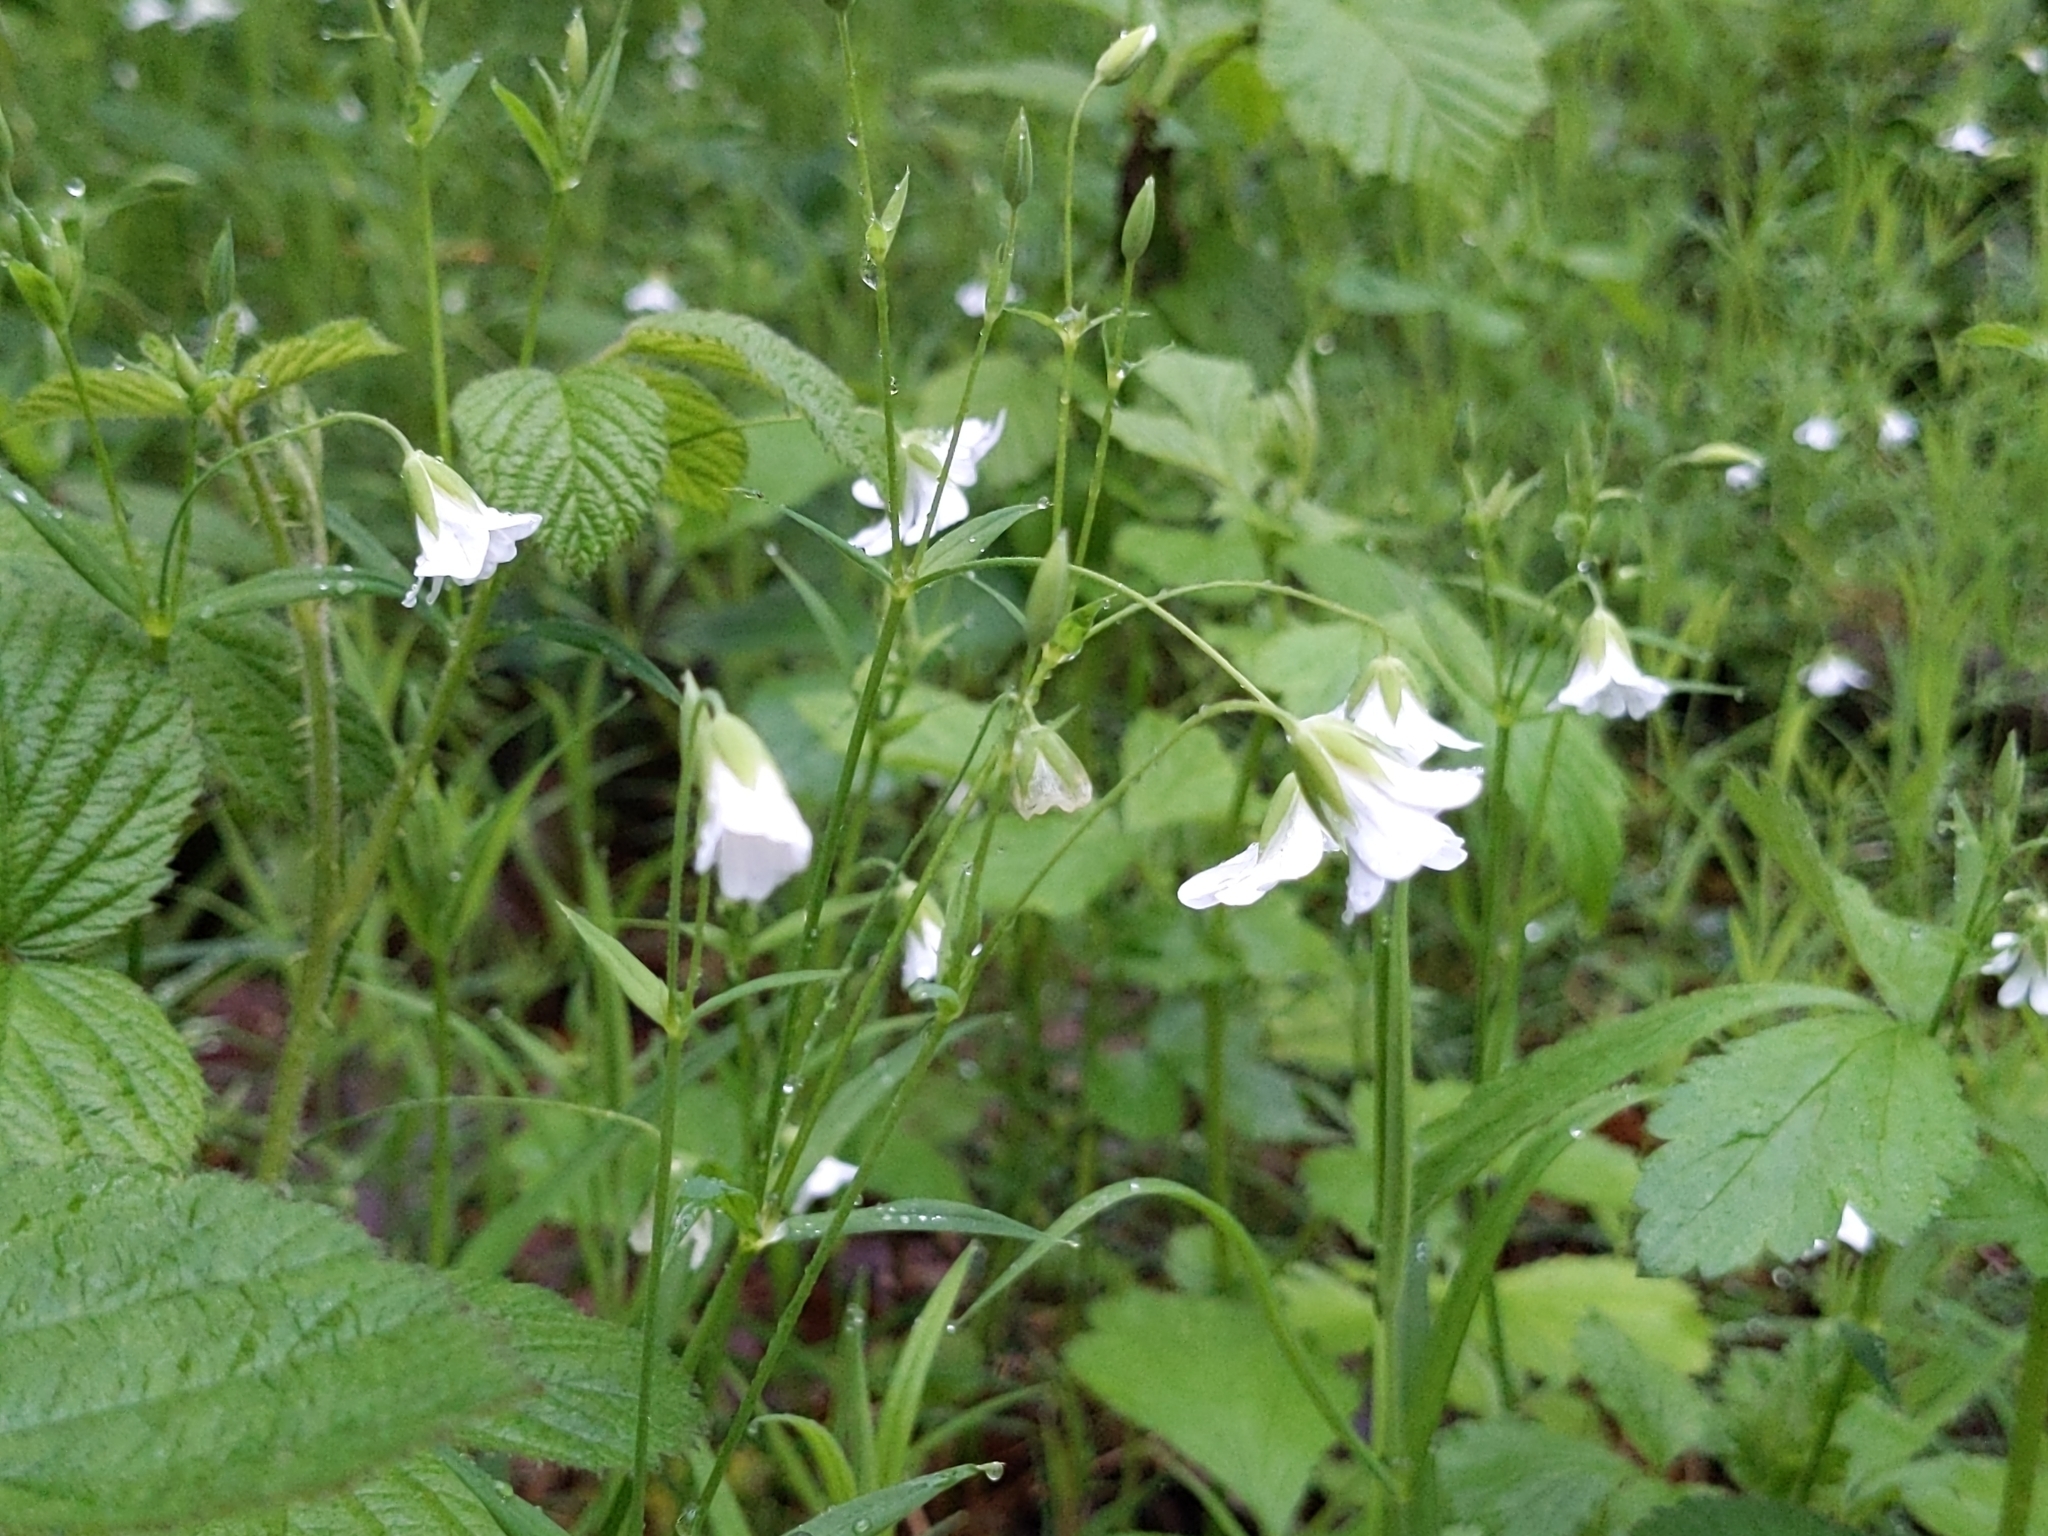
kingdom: Plantae
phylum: Tracheophyta
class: Magnoliopsida
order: Caryophyllales
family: Caryophyllaceae
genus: Rabelera
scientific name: Rabelera holostea
